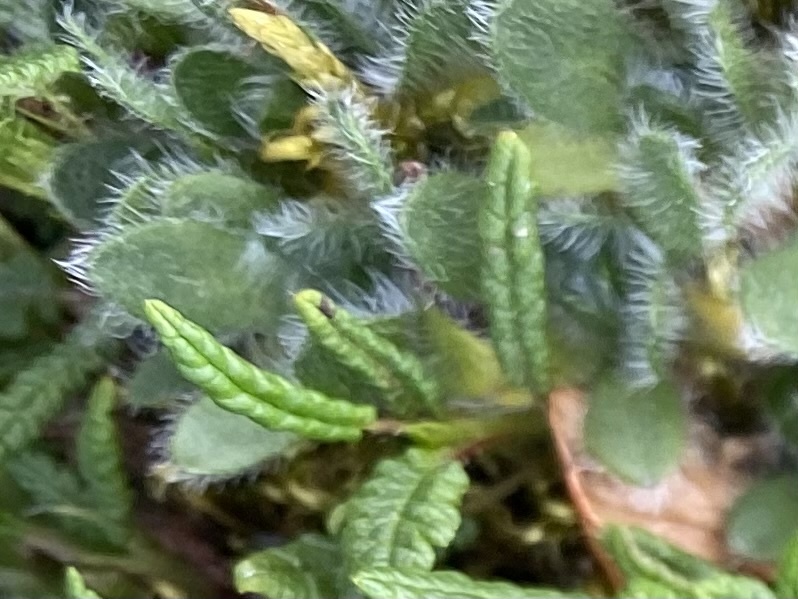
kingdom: Plantae
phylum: Tracheophyta
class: Magnoliopsida
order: Boraginales
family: Boraginaceae
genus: Eritrichium
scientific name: Eritrichium villosum
